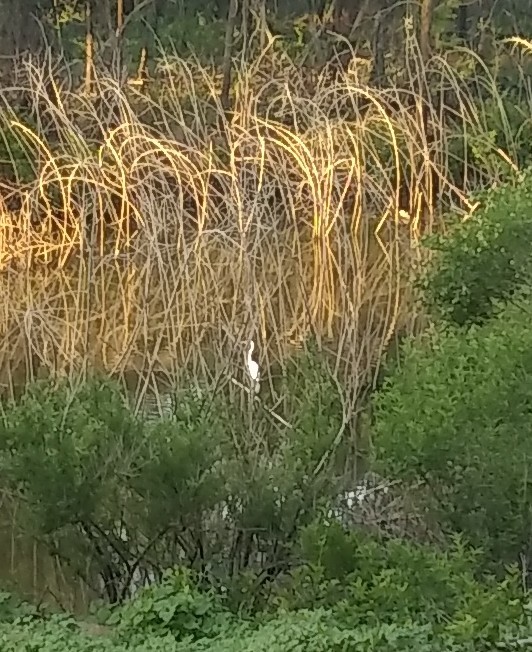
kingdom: Animalia
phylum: Chordata
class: Aves
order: Pelecaniformes
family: Ardeidae
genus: Ardea
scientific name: Ardea alba
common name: Great egret
